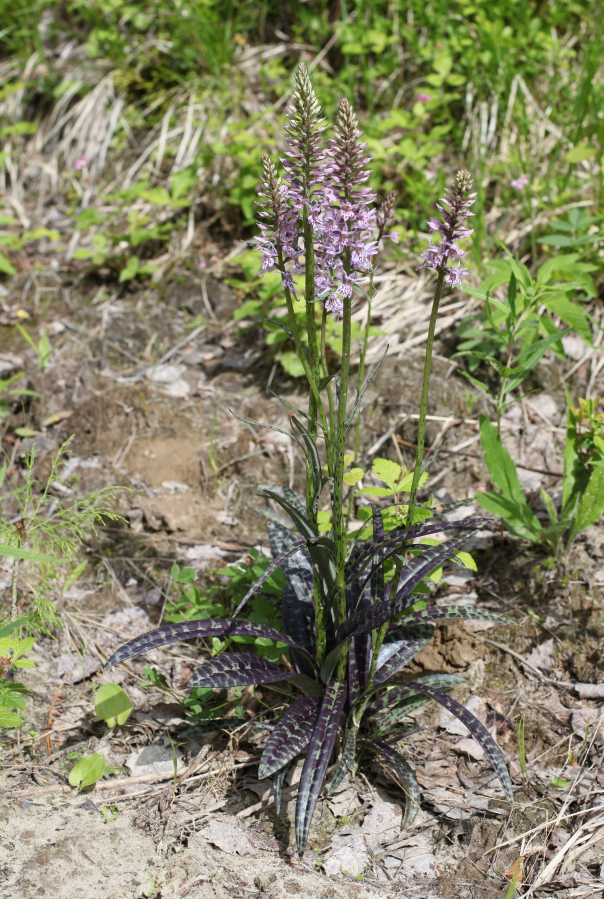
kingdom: Plantae
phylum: Tracheophyta
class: Liliopsida
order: Asparagales
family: Orchidaceae
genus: Dactylorhiza
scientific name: Dactylorhiza maculata
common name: Heath spotted-orchid
